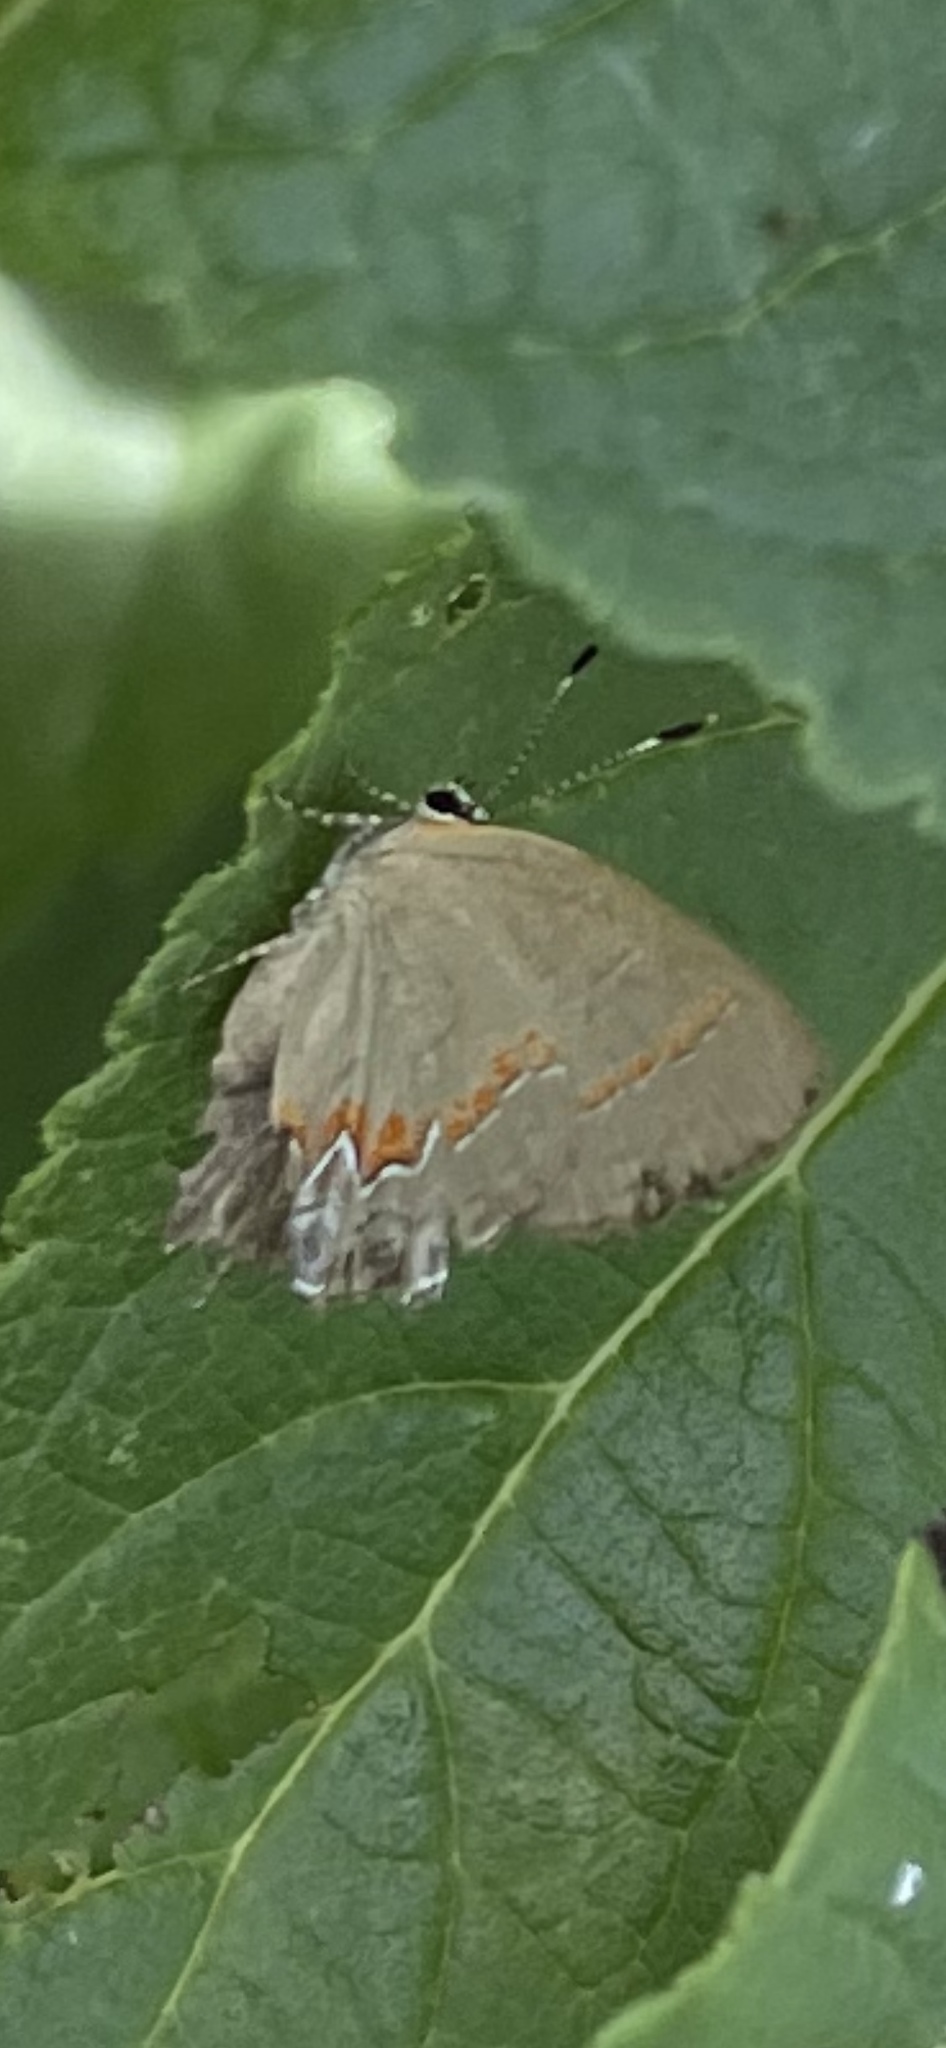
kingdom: Animalia
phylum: Arthropoda
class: Insecta
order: Lepidoptera
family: Lycaenidae
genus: Calycopis
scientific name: Calycopis cecrops
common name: Red-banded hairstreak
